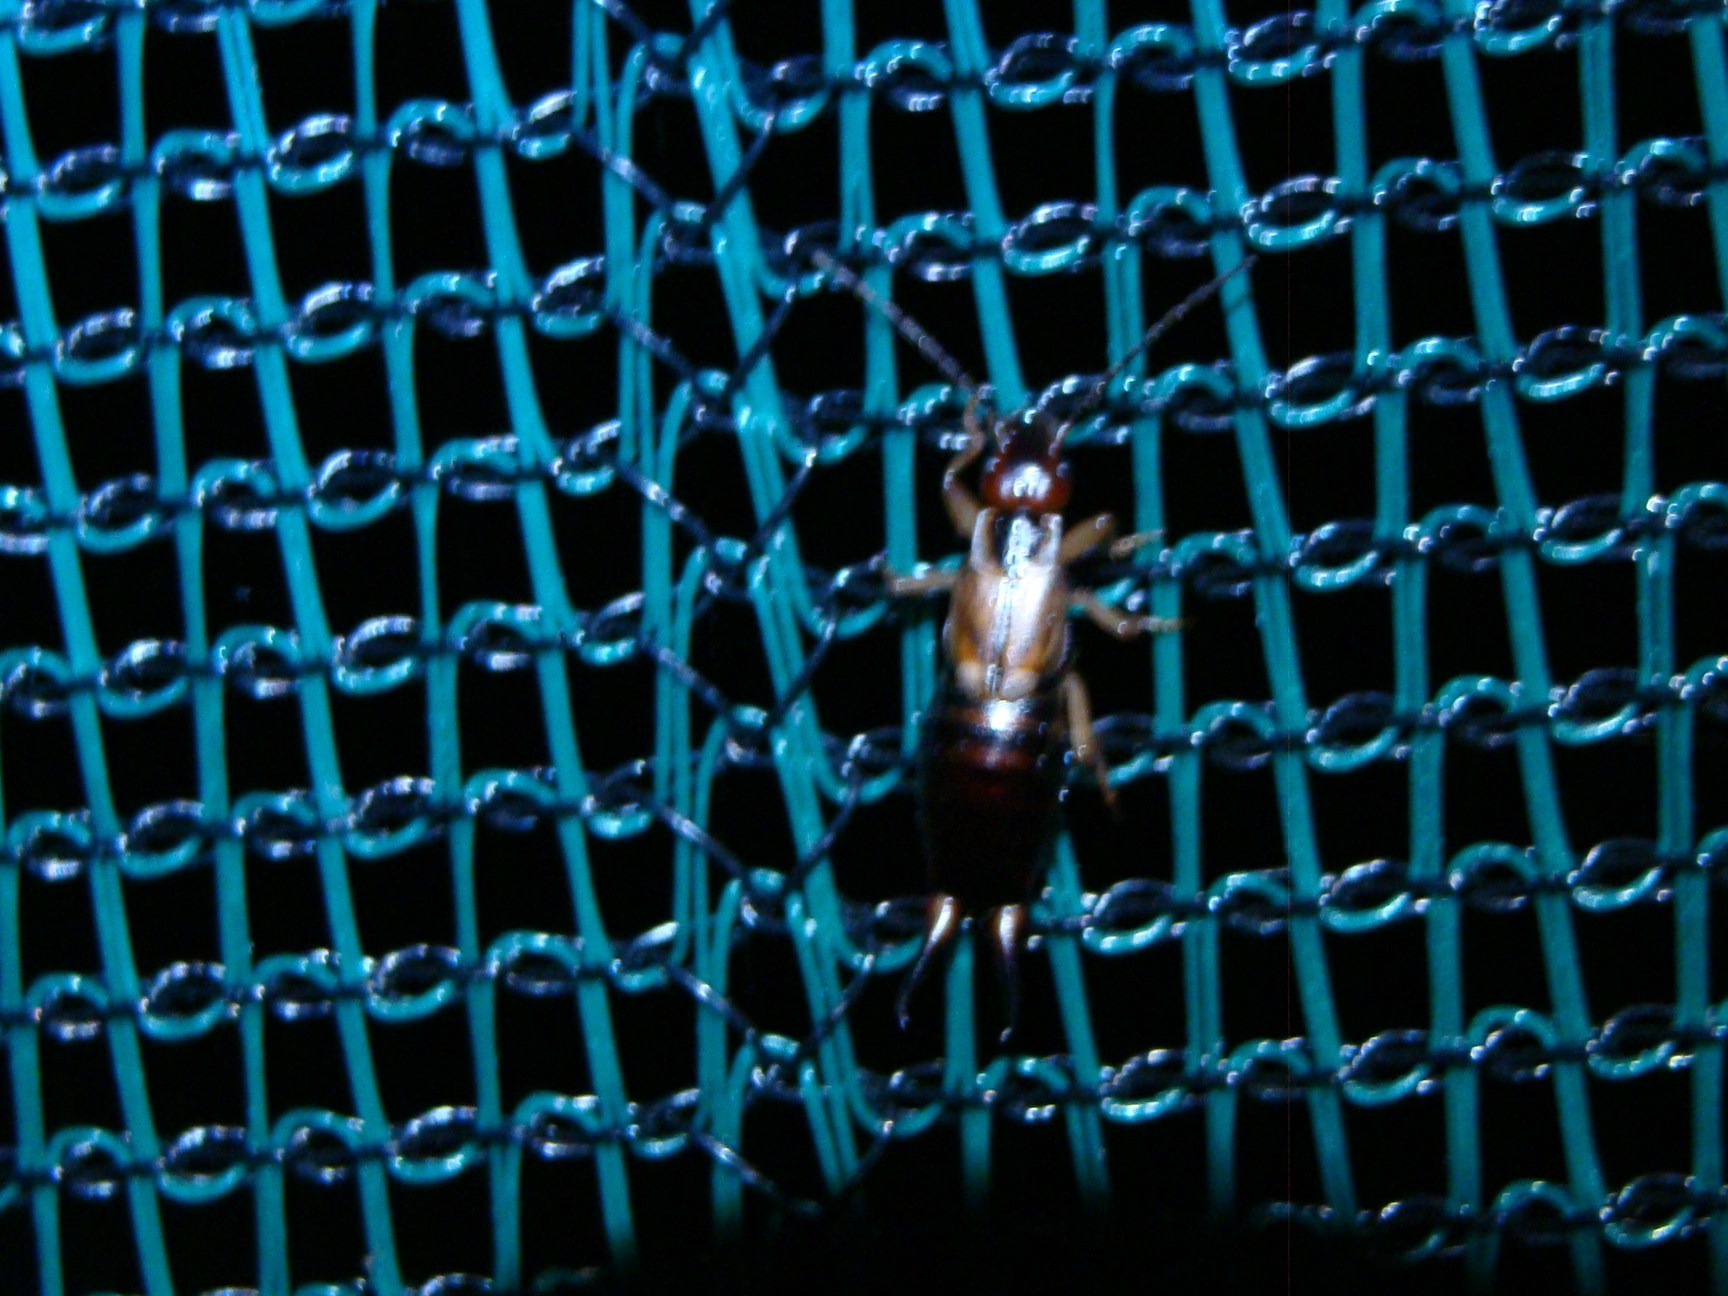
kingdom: Animalia
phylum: Arthropoda
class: Insecta
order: Dermaptera
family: Forficulidae
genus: Forficula
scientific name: Forficula
